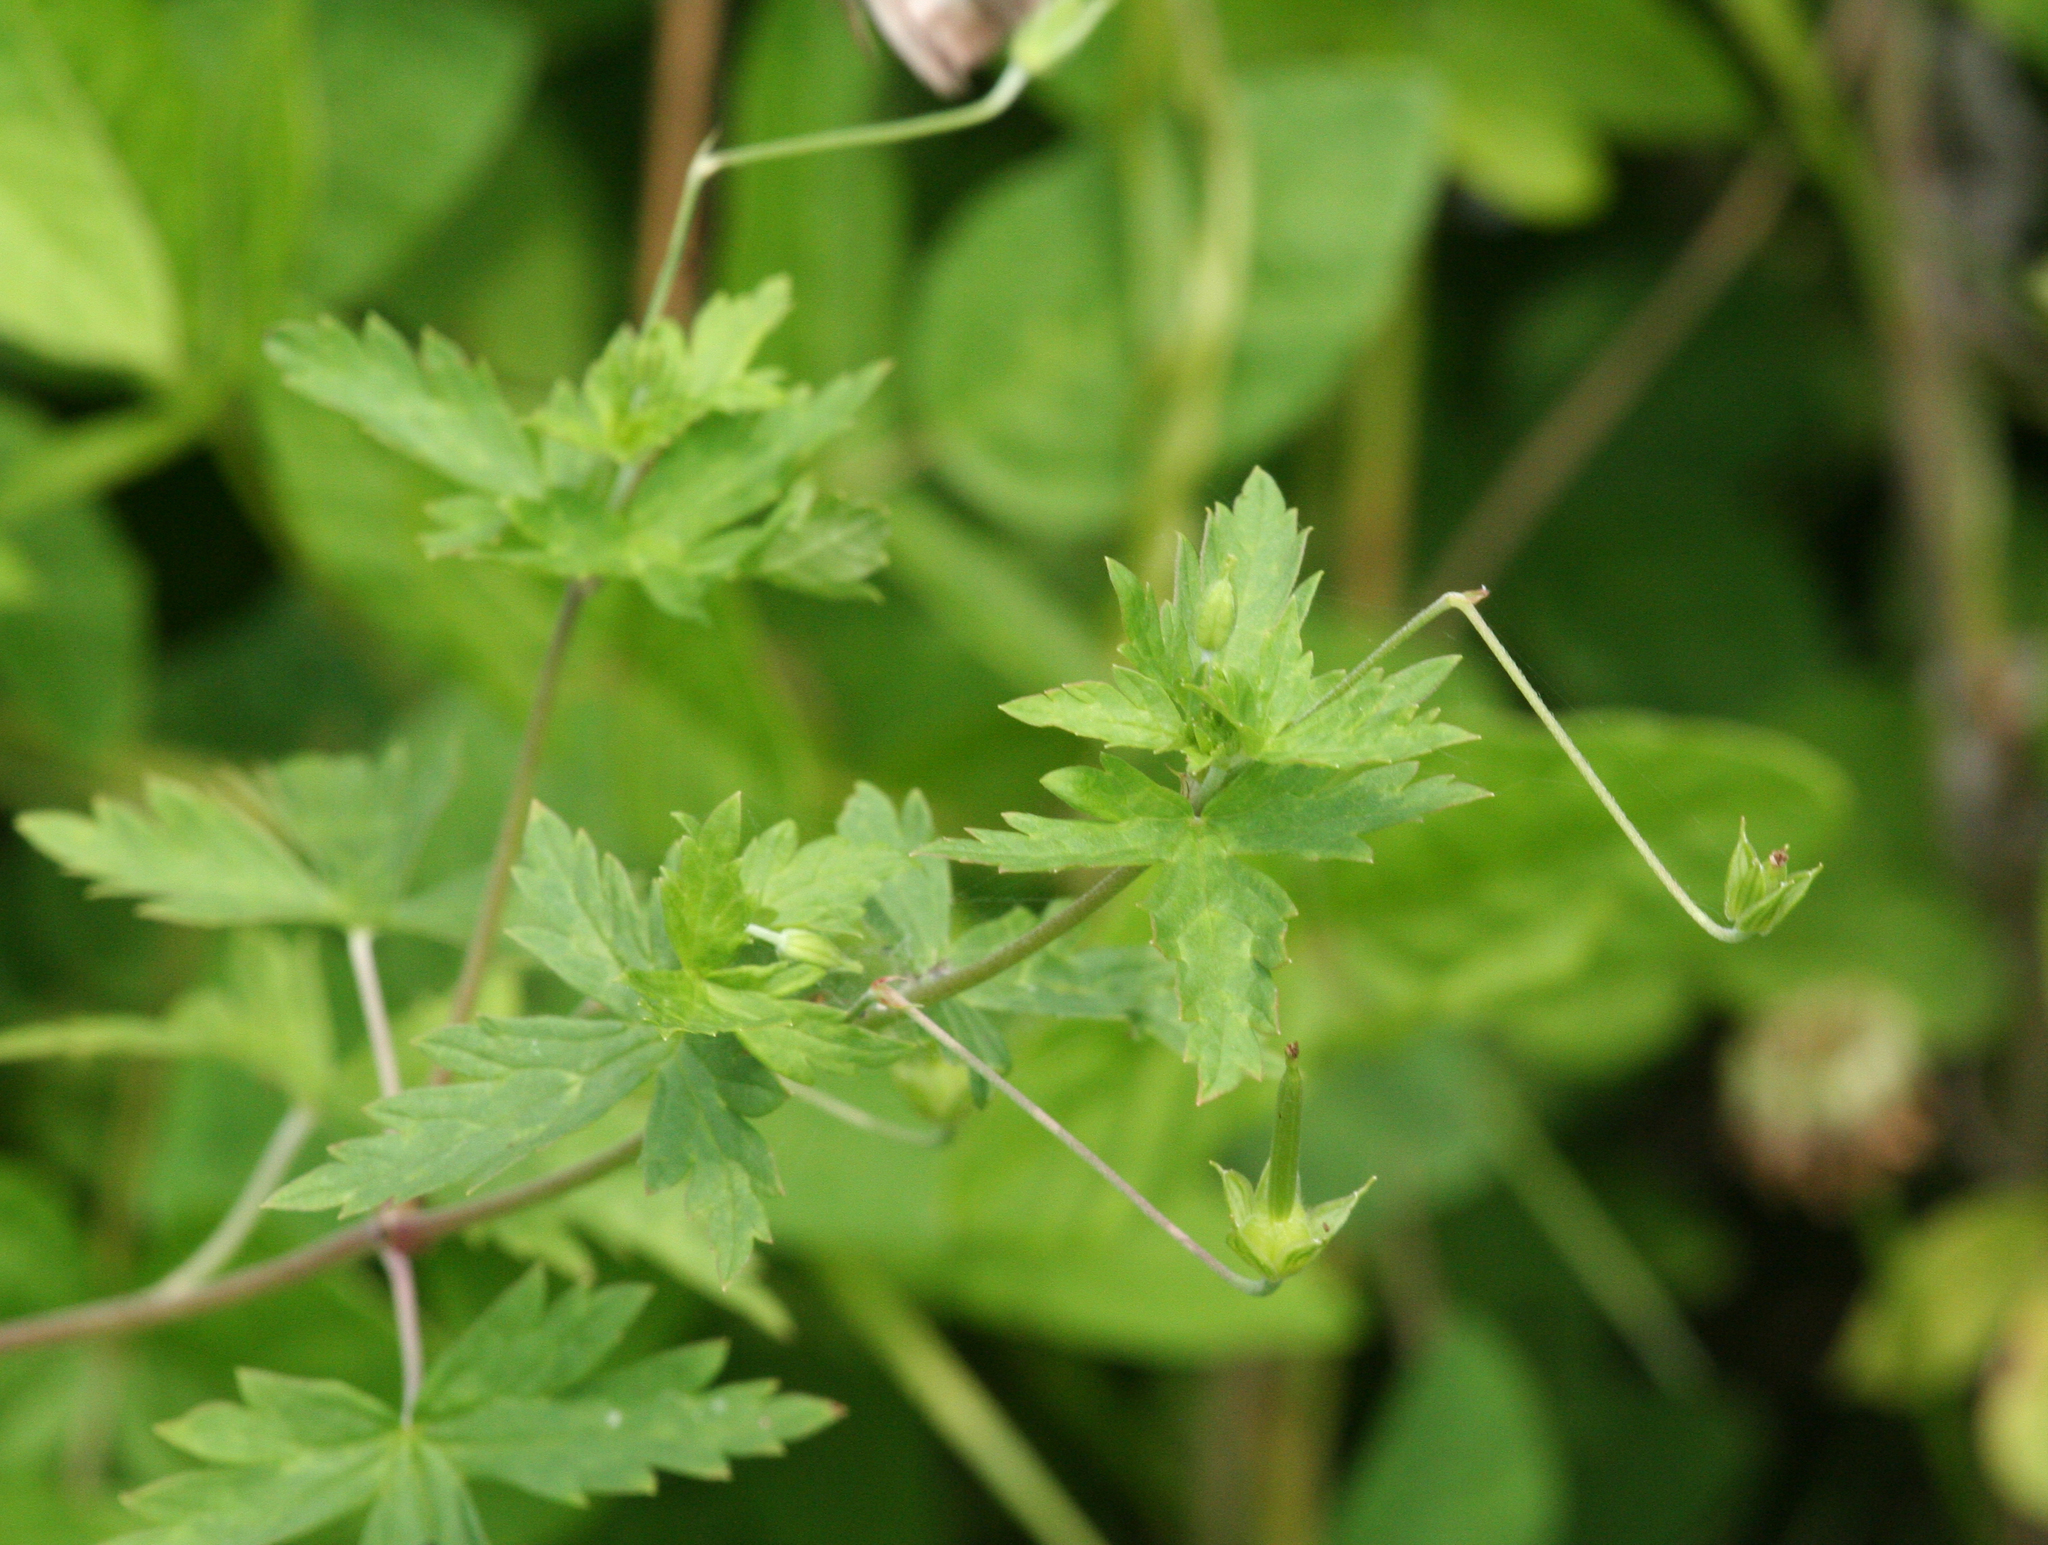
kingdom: Plantae
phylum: Tracheophyta
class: Magnoliopsida
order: Geraniales
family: Geraniaceae
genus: Geranium
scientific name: Geranium sibiricum
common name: Siberian crane's-bill
